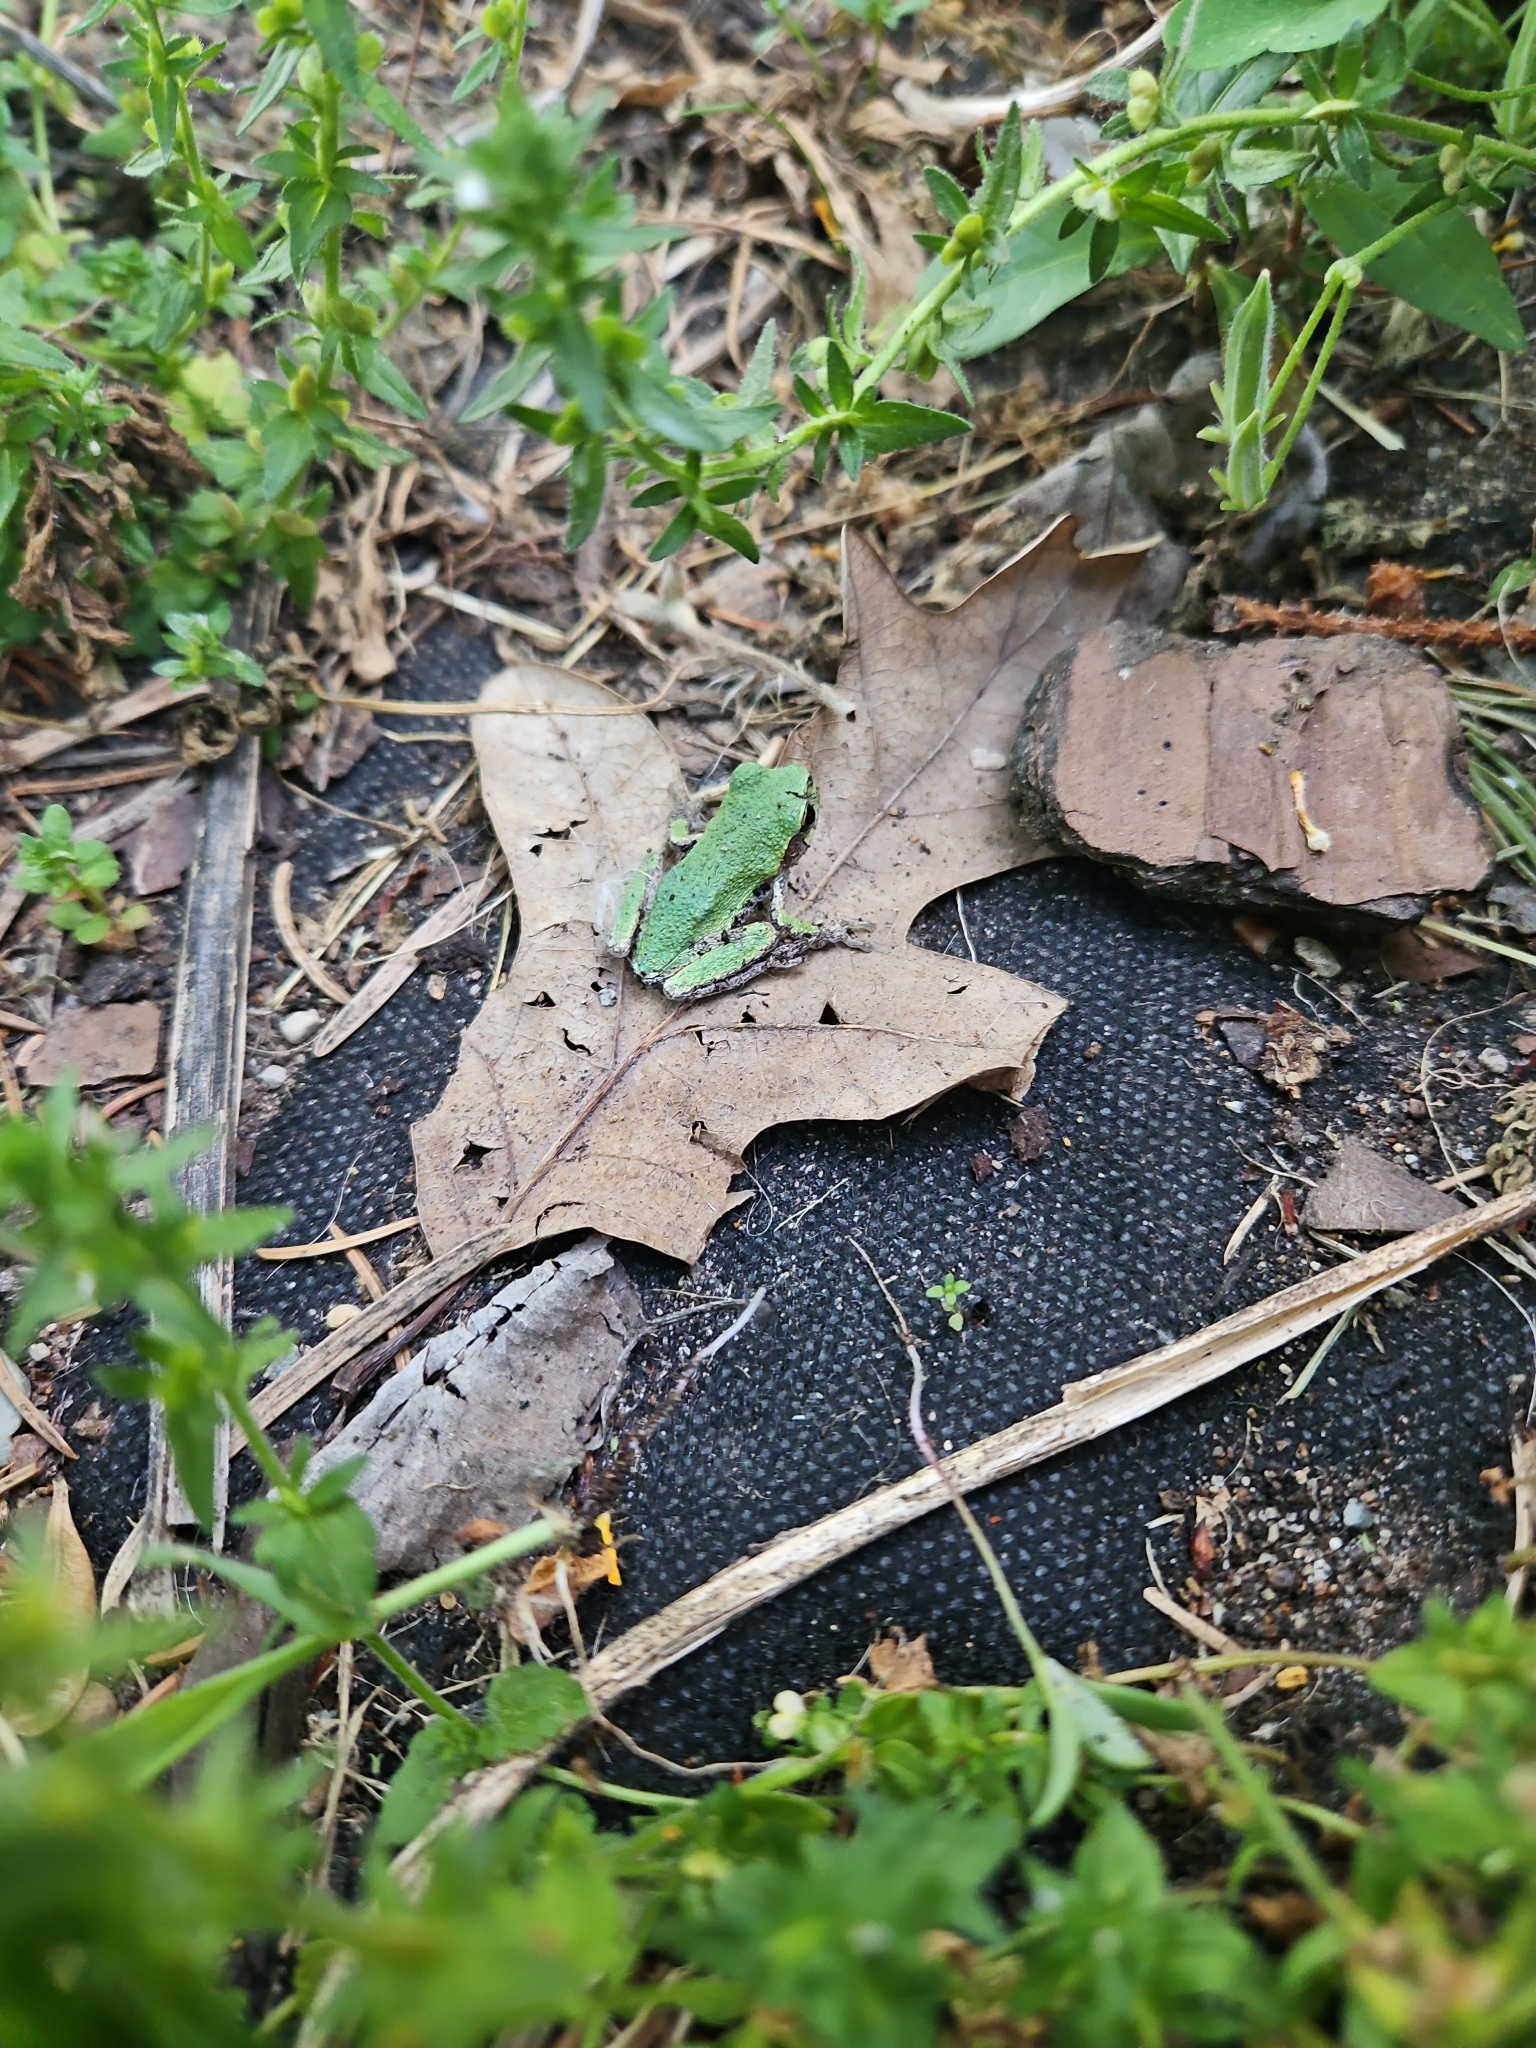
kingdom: Animalia
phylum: Chordata
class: Amphibia
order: Anura
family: Hylidae
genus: Hyla
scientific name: Hyla
